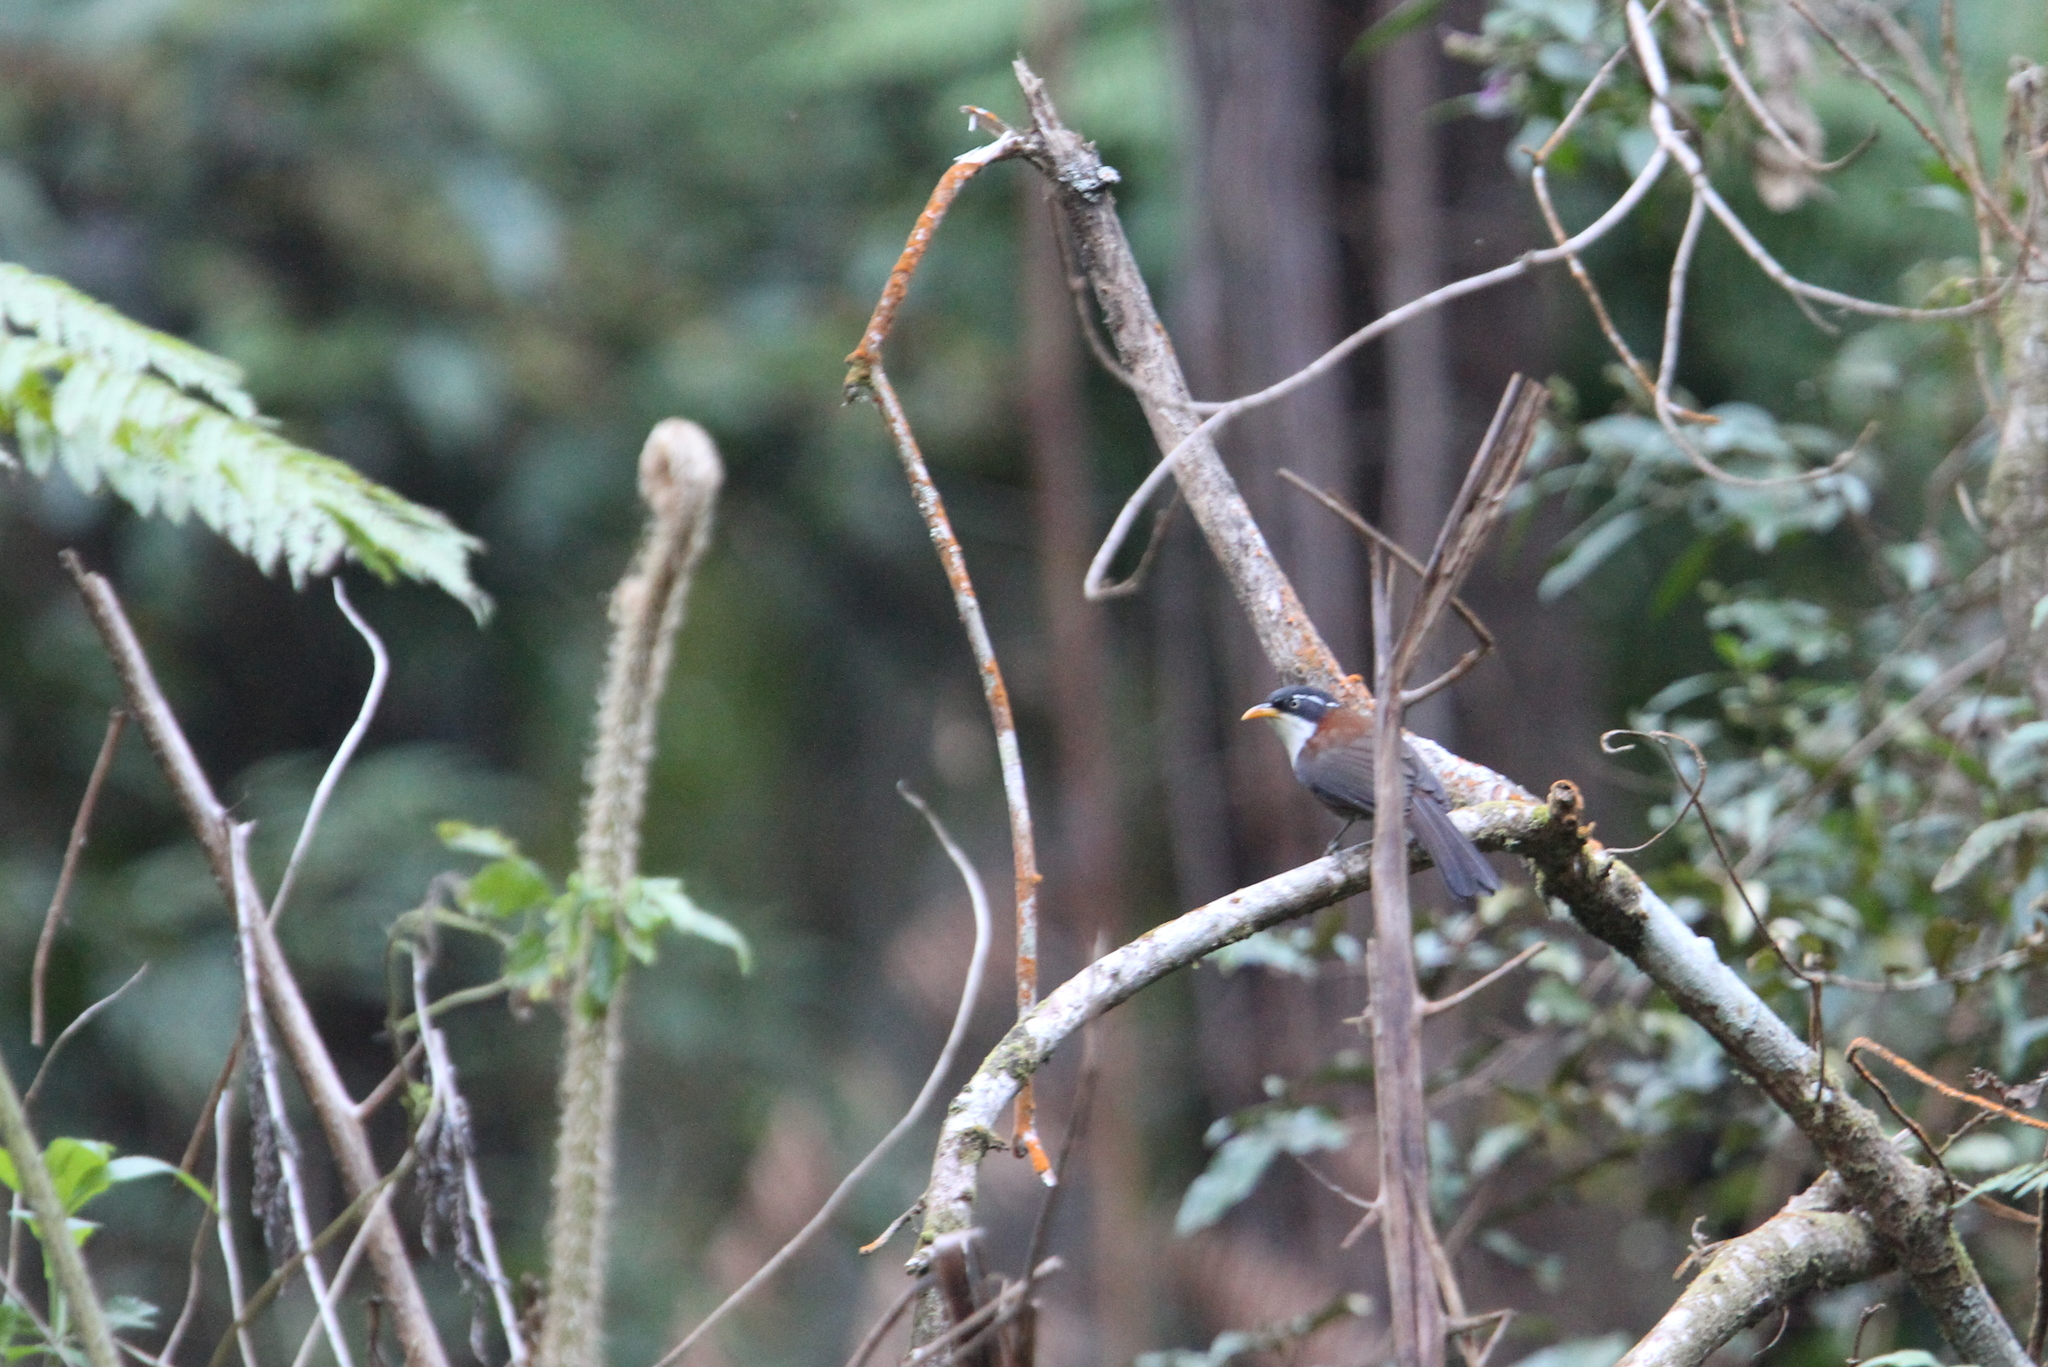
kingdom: Animalia
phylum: Chordata
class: Aves
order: Passeriformes
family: Timaliidae
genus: Pomatorhinus
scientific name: Pomatorhinus montanus
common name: Chestnut-backed scimitar babbler
